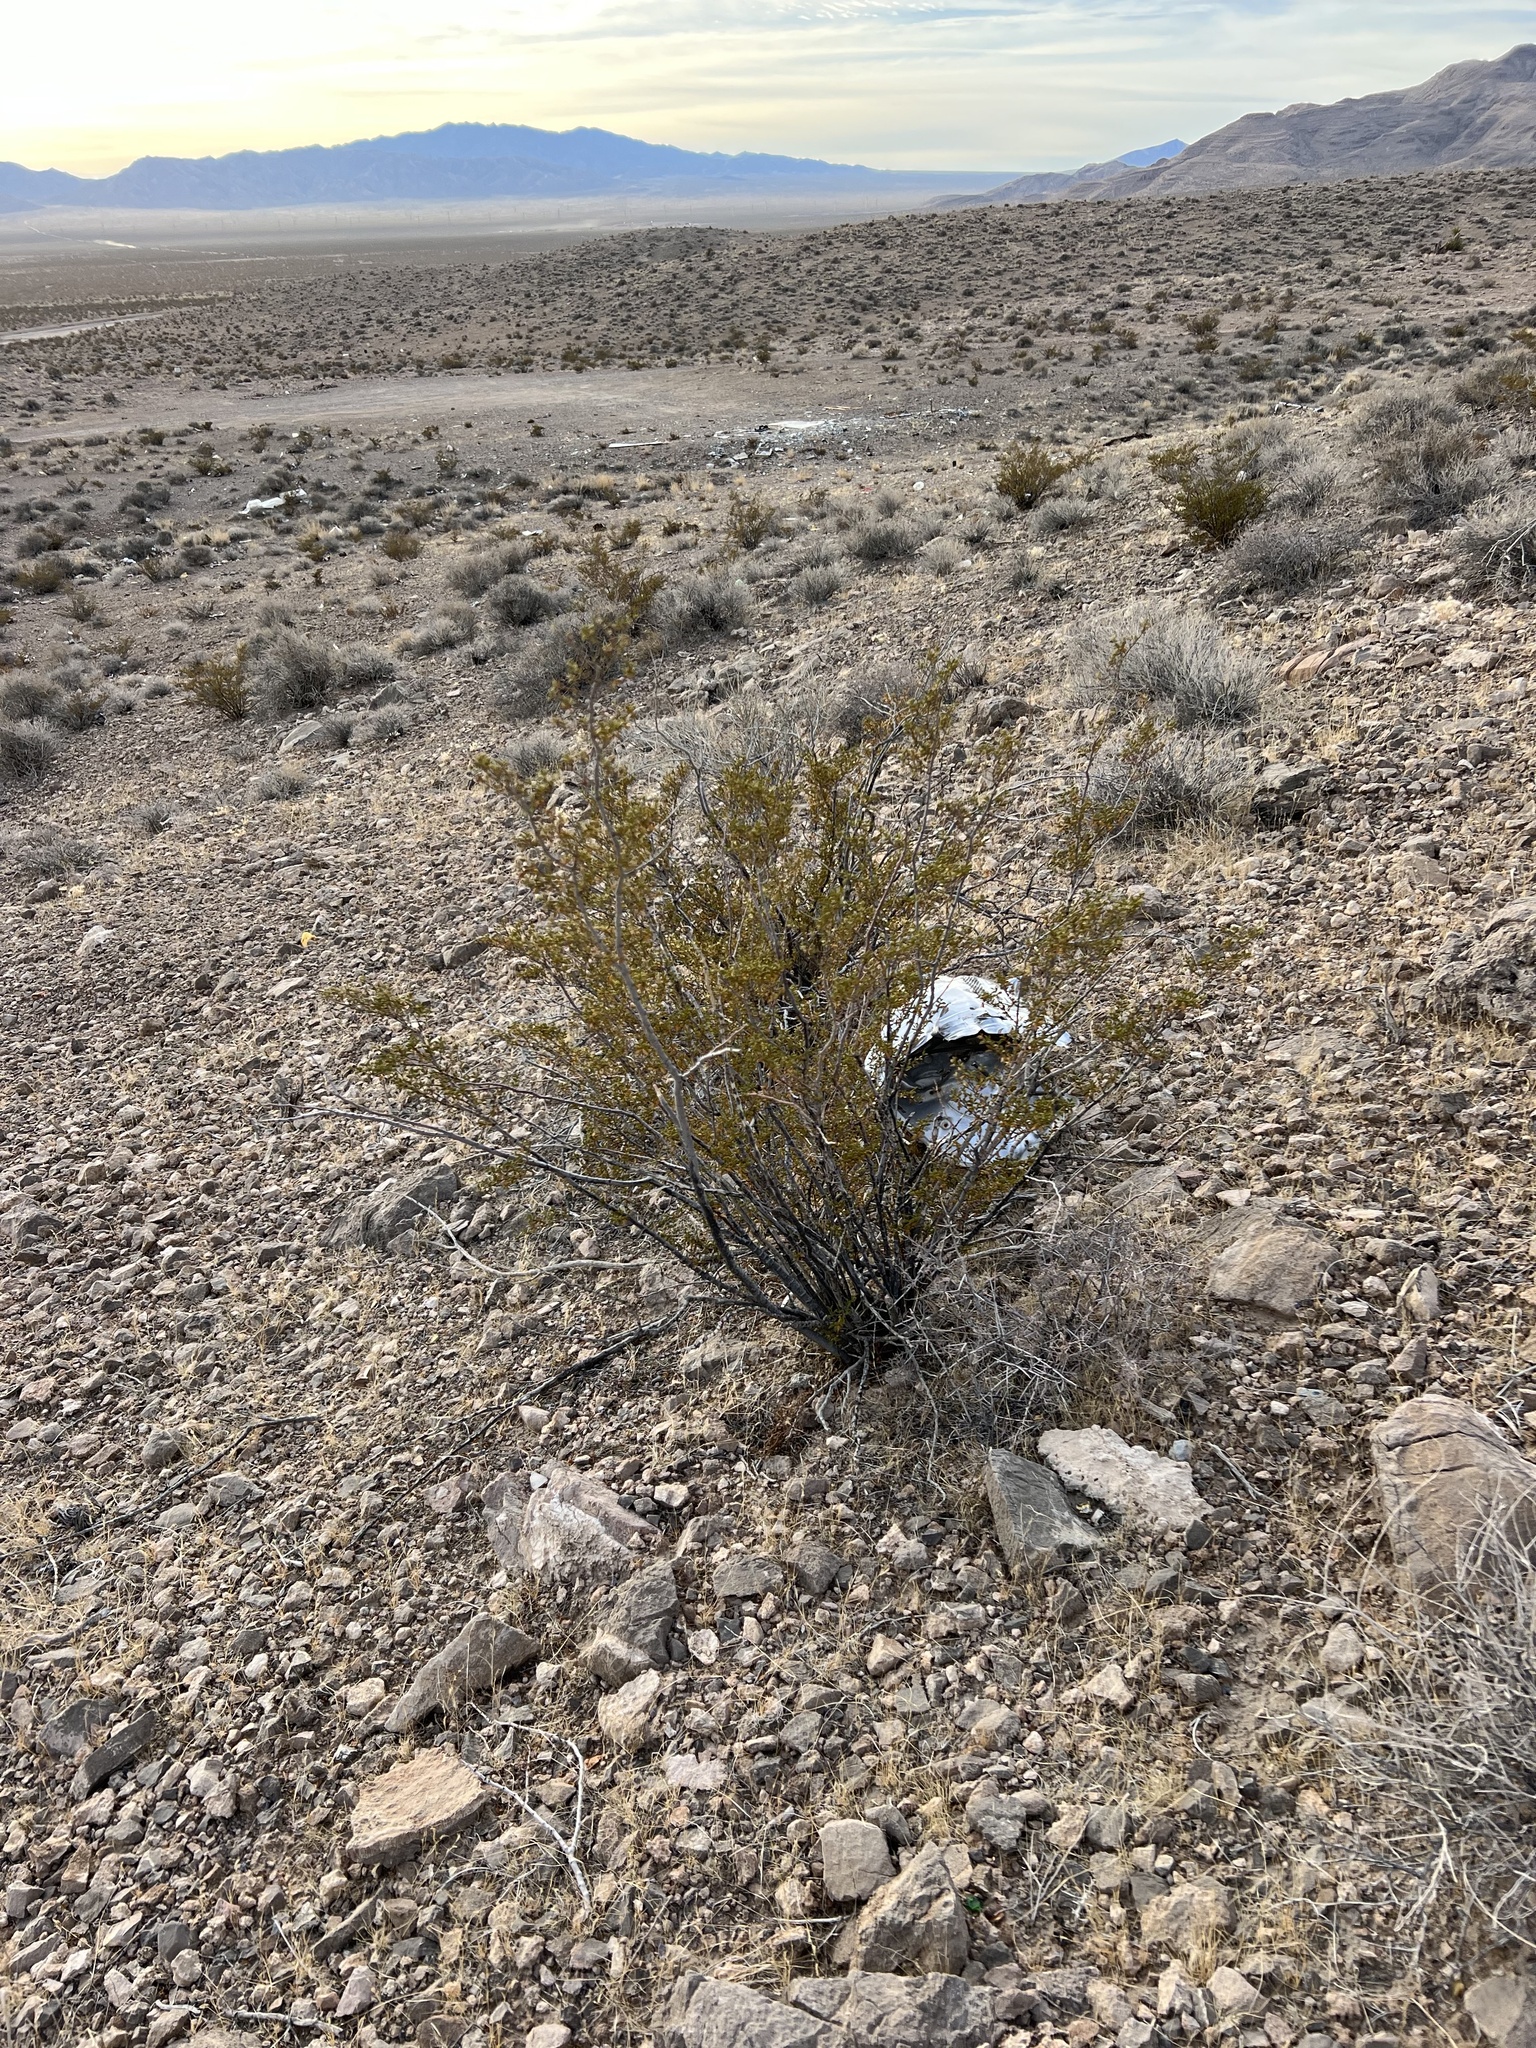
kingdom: Plantae
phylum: Tracheophyta
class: Magnoliopsida
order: Zygophyllales
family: Zygophyllaceae
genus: Larrea
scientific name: Larrea tridentata
